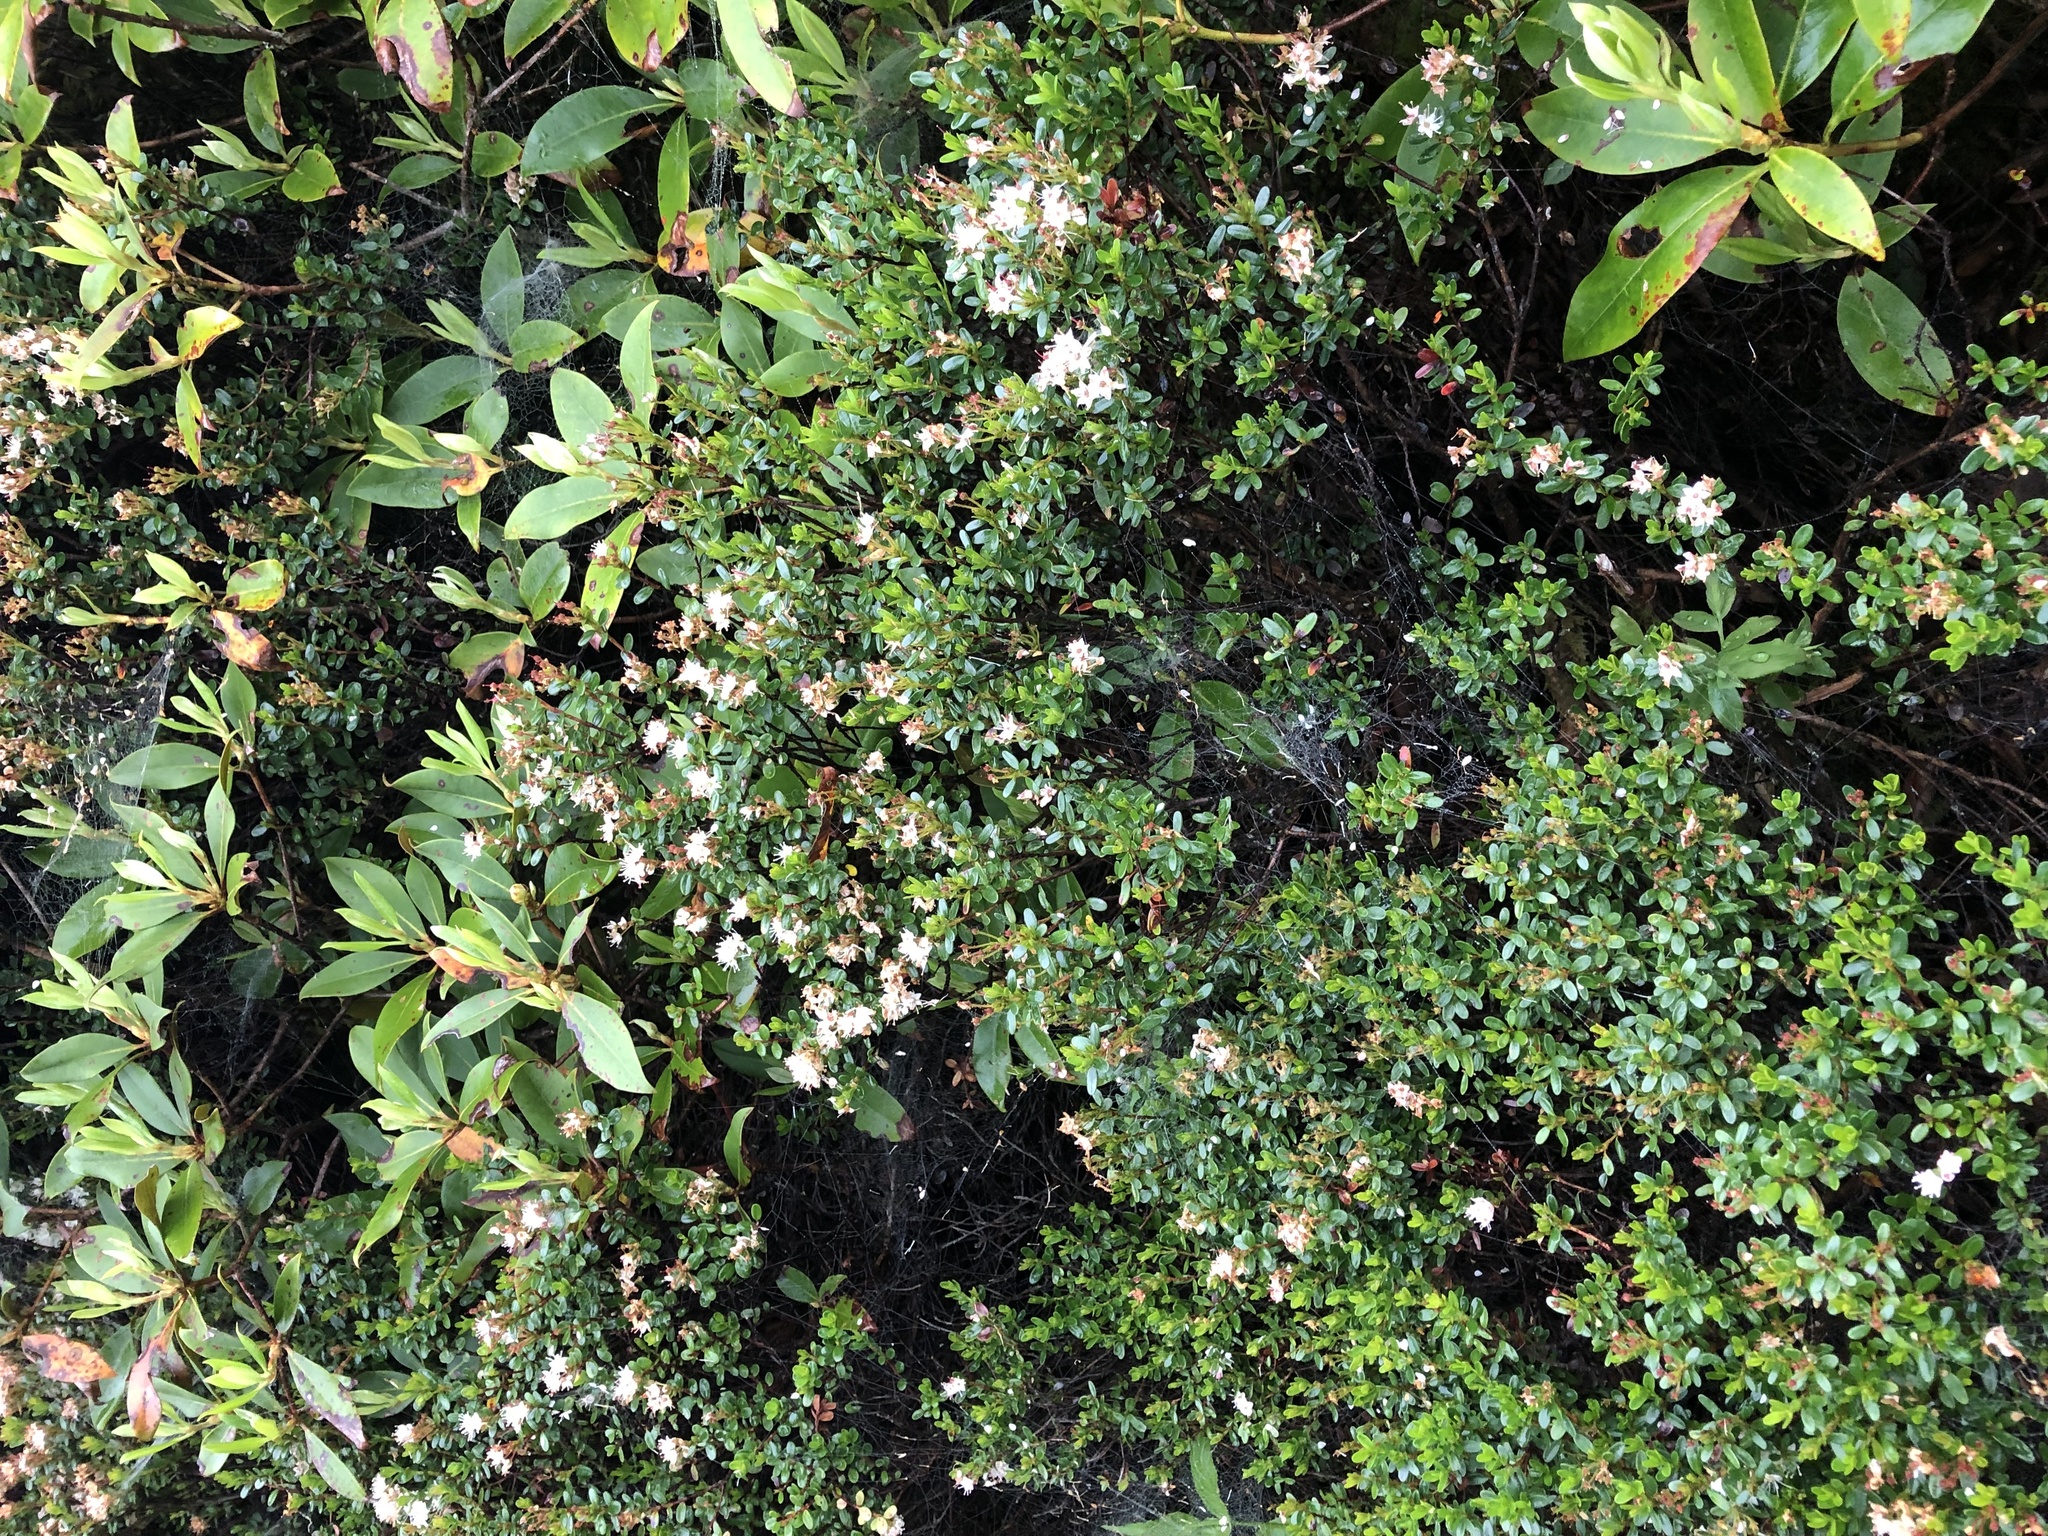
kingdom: Plantae
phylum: Tracheophyta
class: Magnoliopsida
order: Ericales
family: Ericaceae
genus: Kalmia
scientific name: Kalmia buxifolia
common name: Sandmyrtle
